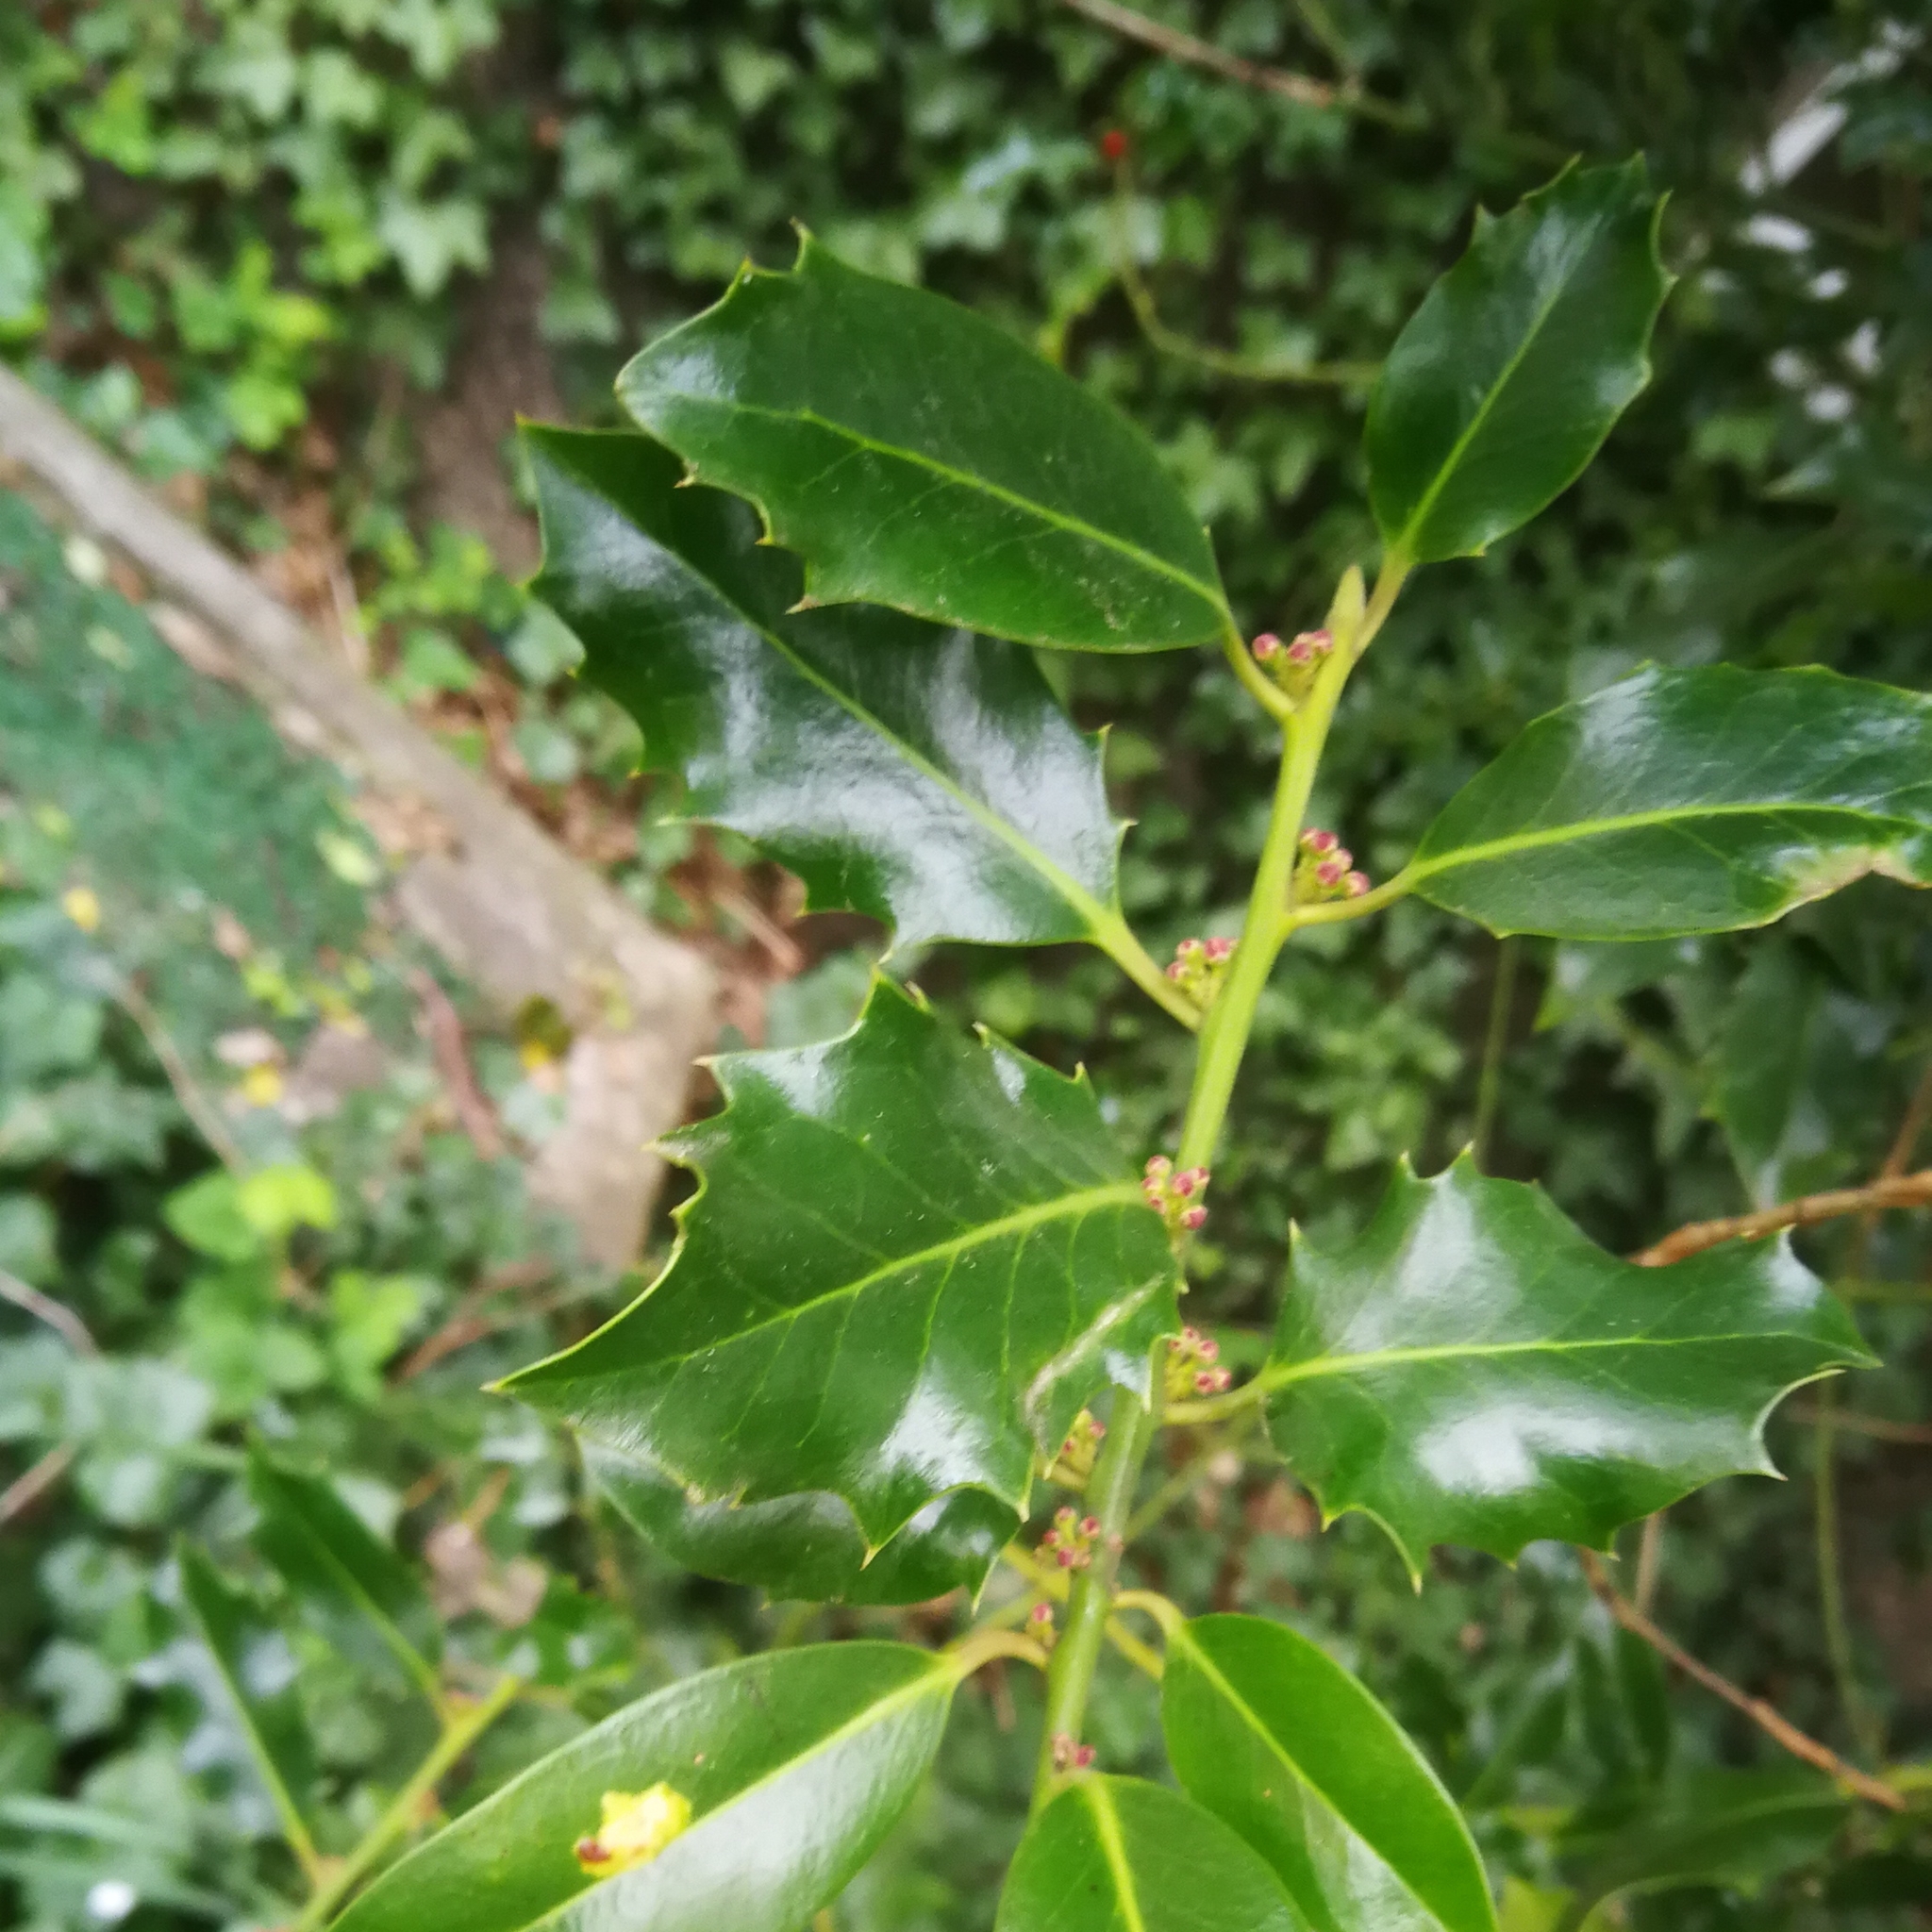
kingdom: Plantae
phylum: Tracheophyta
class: Magnoliopsida
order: Aquifoliales
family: Aquifoliaceae
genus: Ilex
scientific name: Ilex aquifolium
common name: English holly
